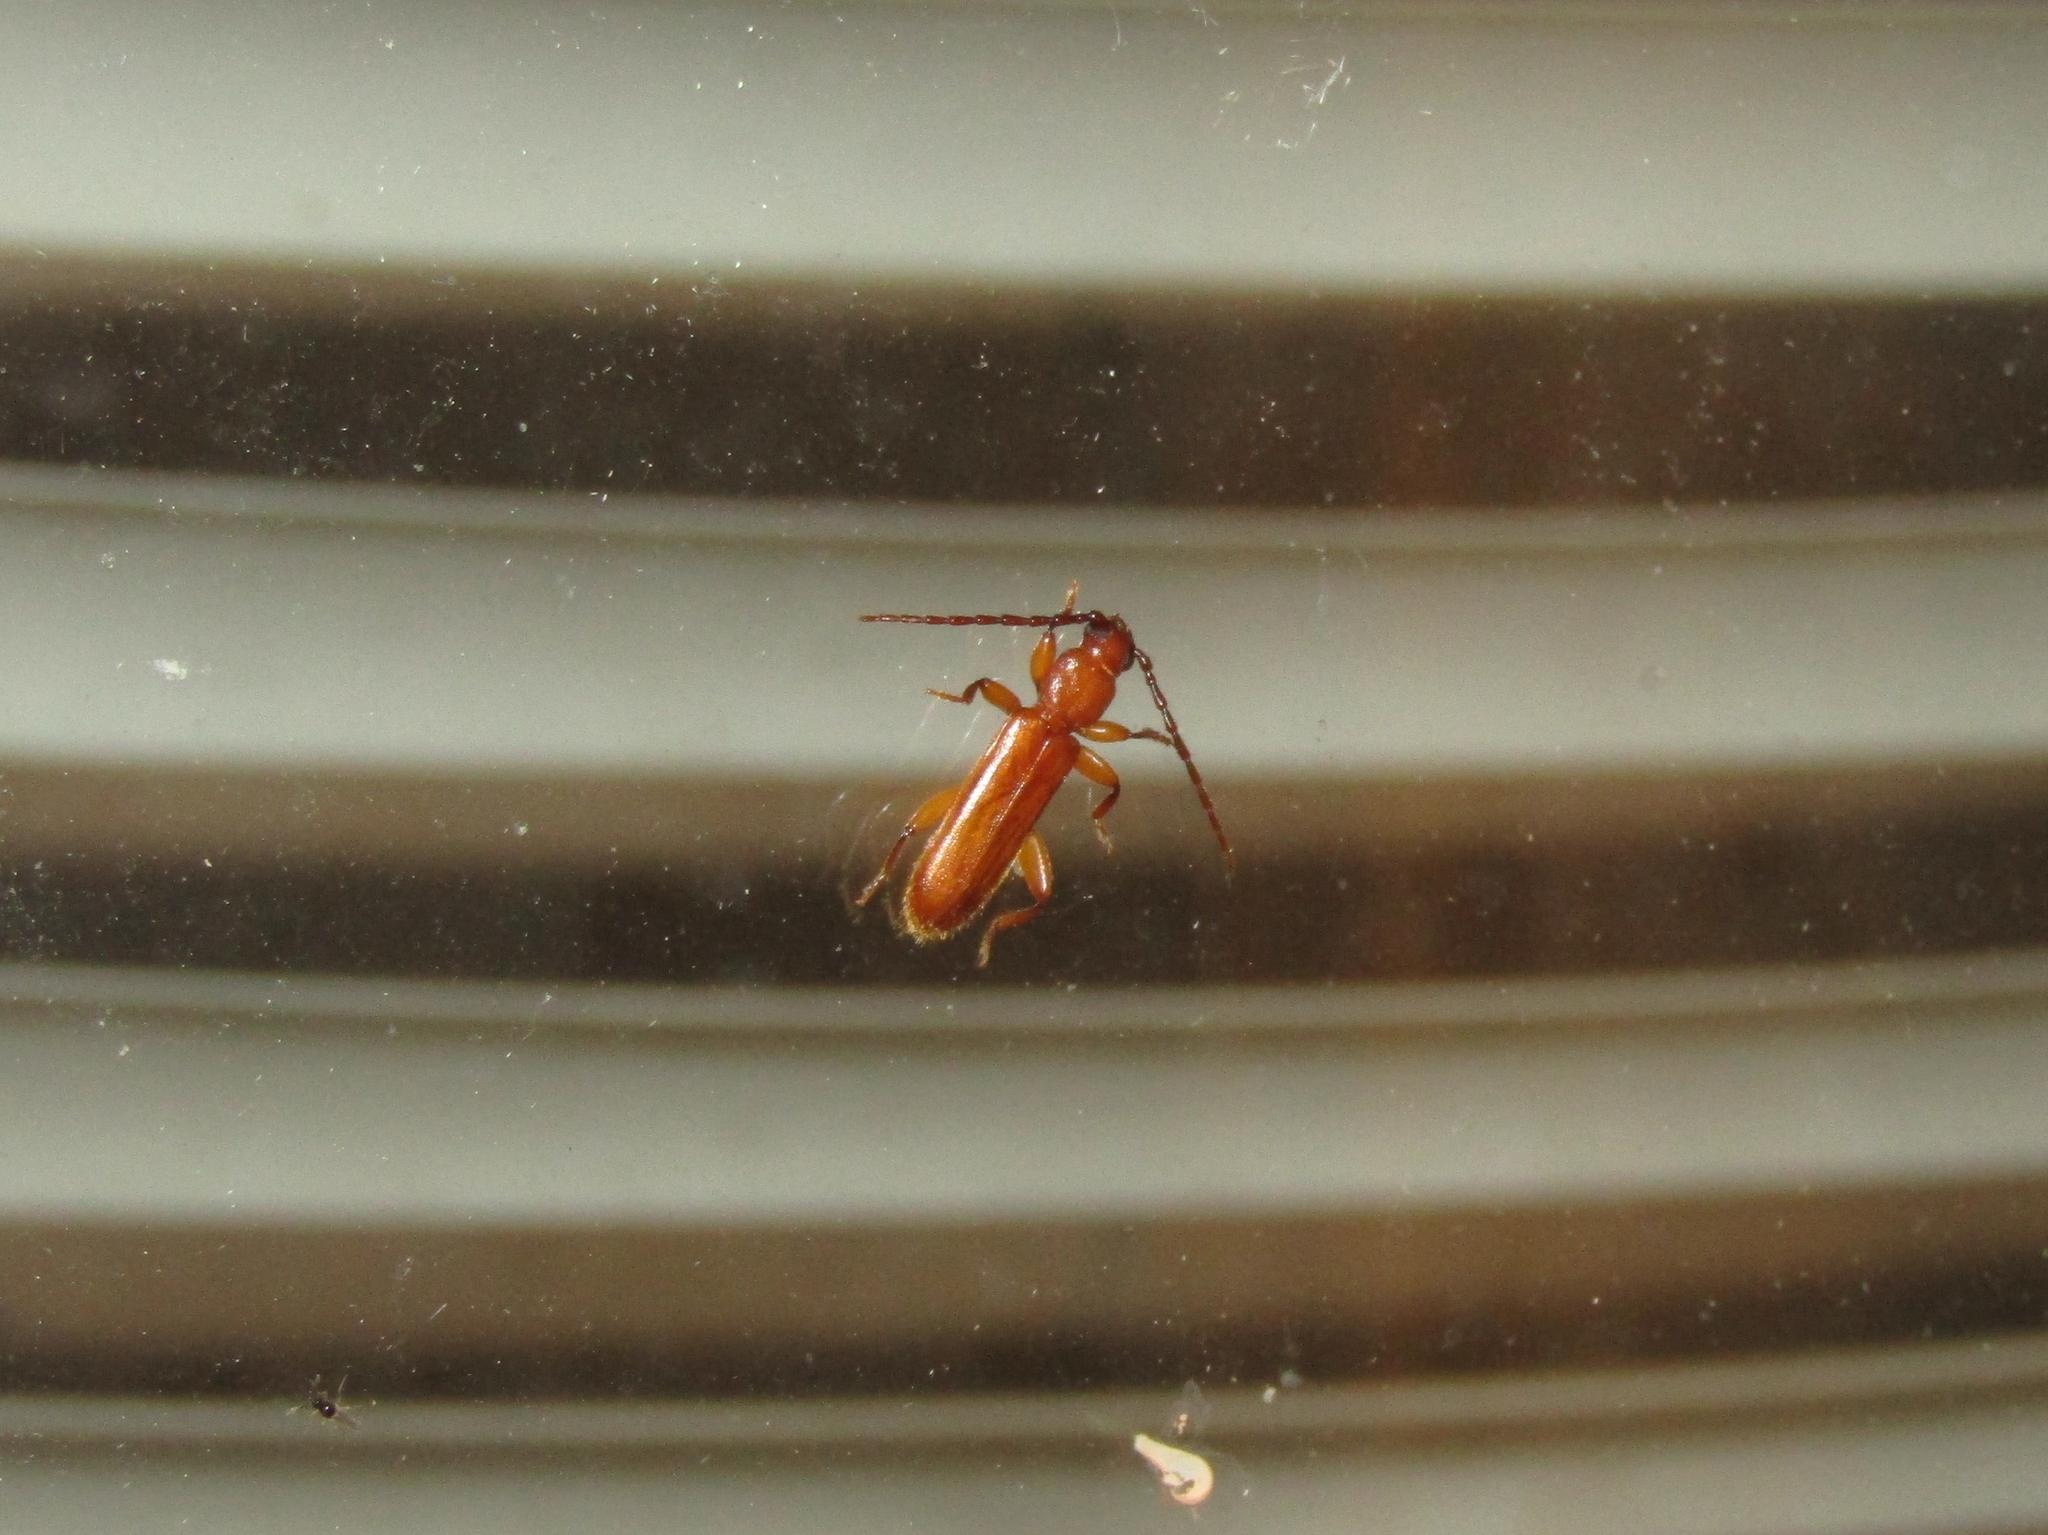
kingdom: Animalia
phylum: Arthropoda
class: Insecta
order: Coleoptera
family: Cerambycidae
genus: Smodicum
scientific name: Smodicum cucujiforme
